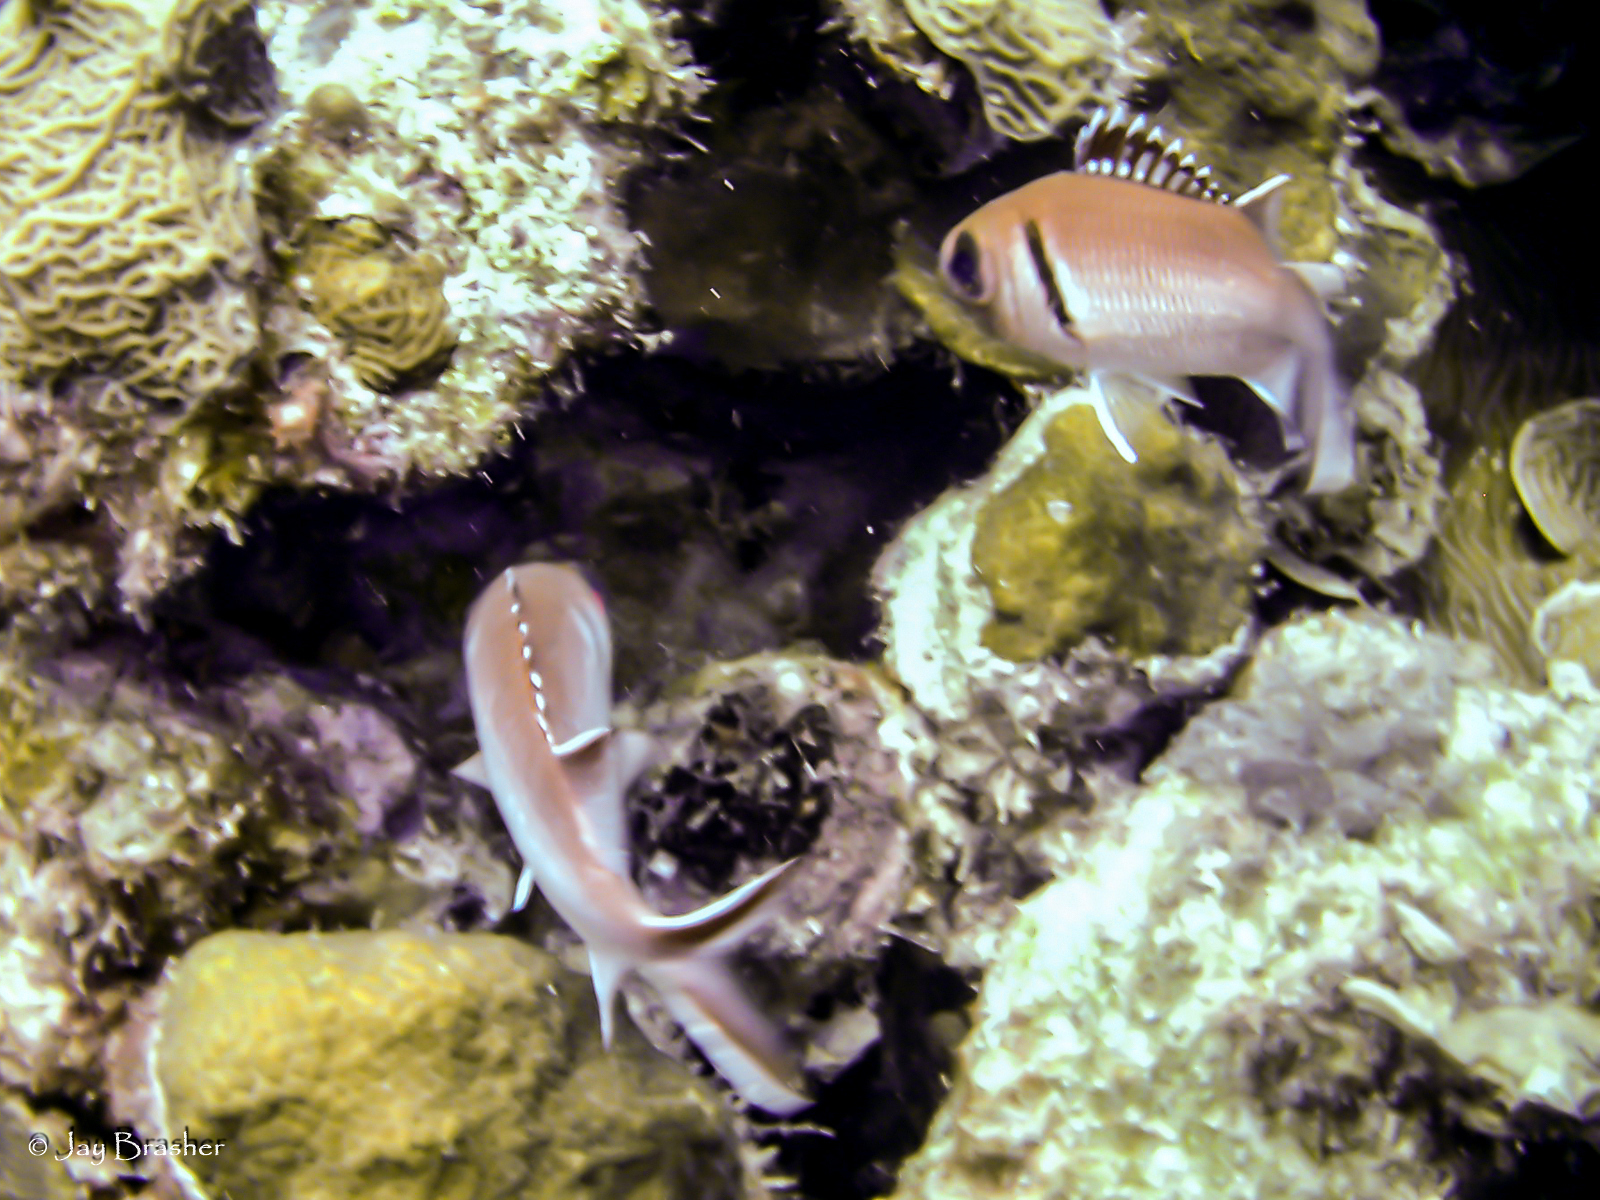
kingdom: Animalia
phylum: Chordata
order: Beryciformes
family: Holocentridae
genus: Myripristis
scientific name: Myripristis jacobus
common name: Blackbar soldierfish
